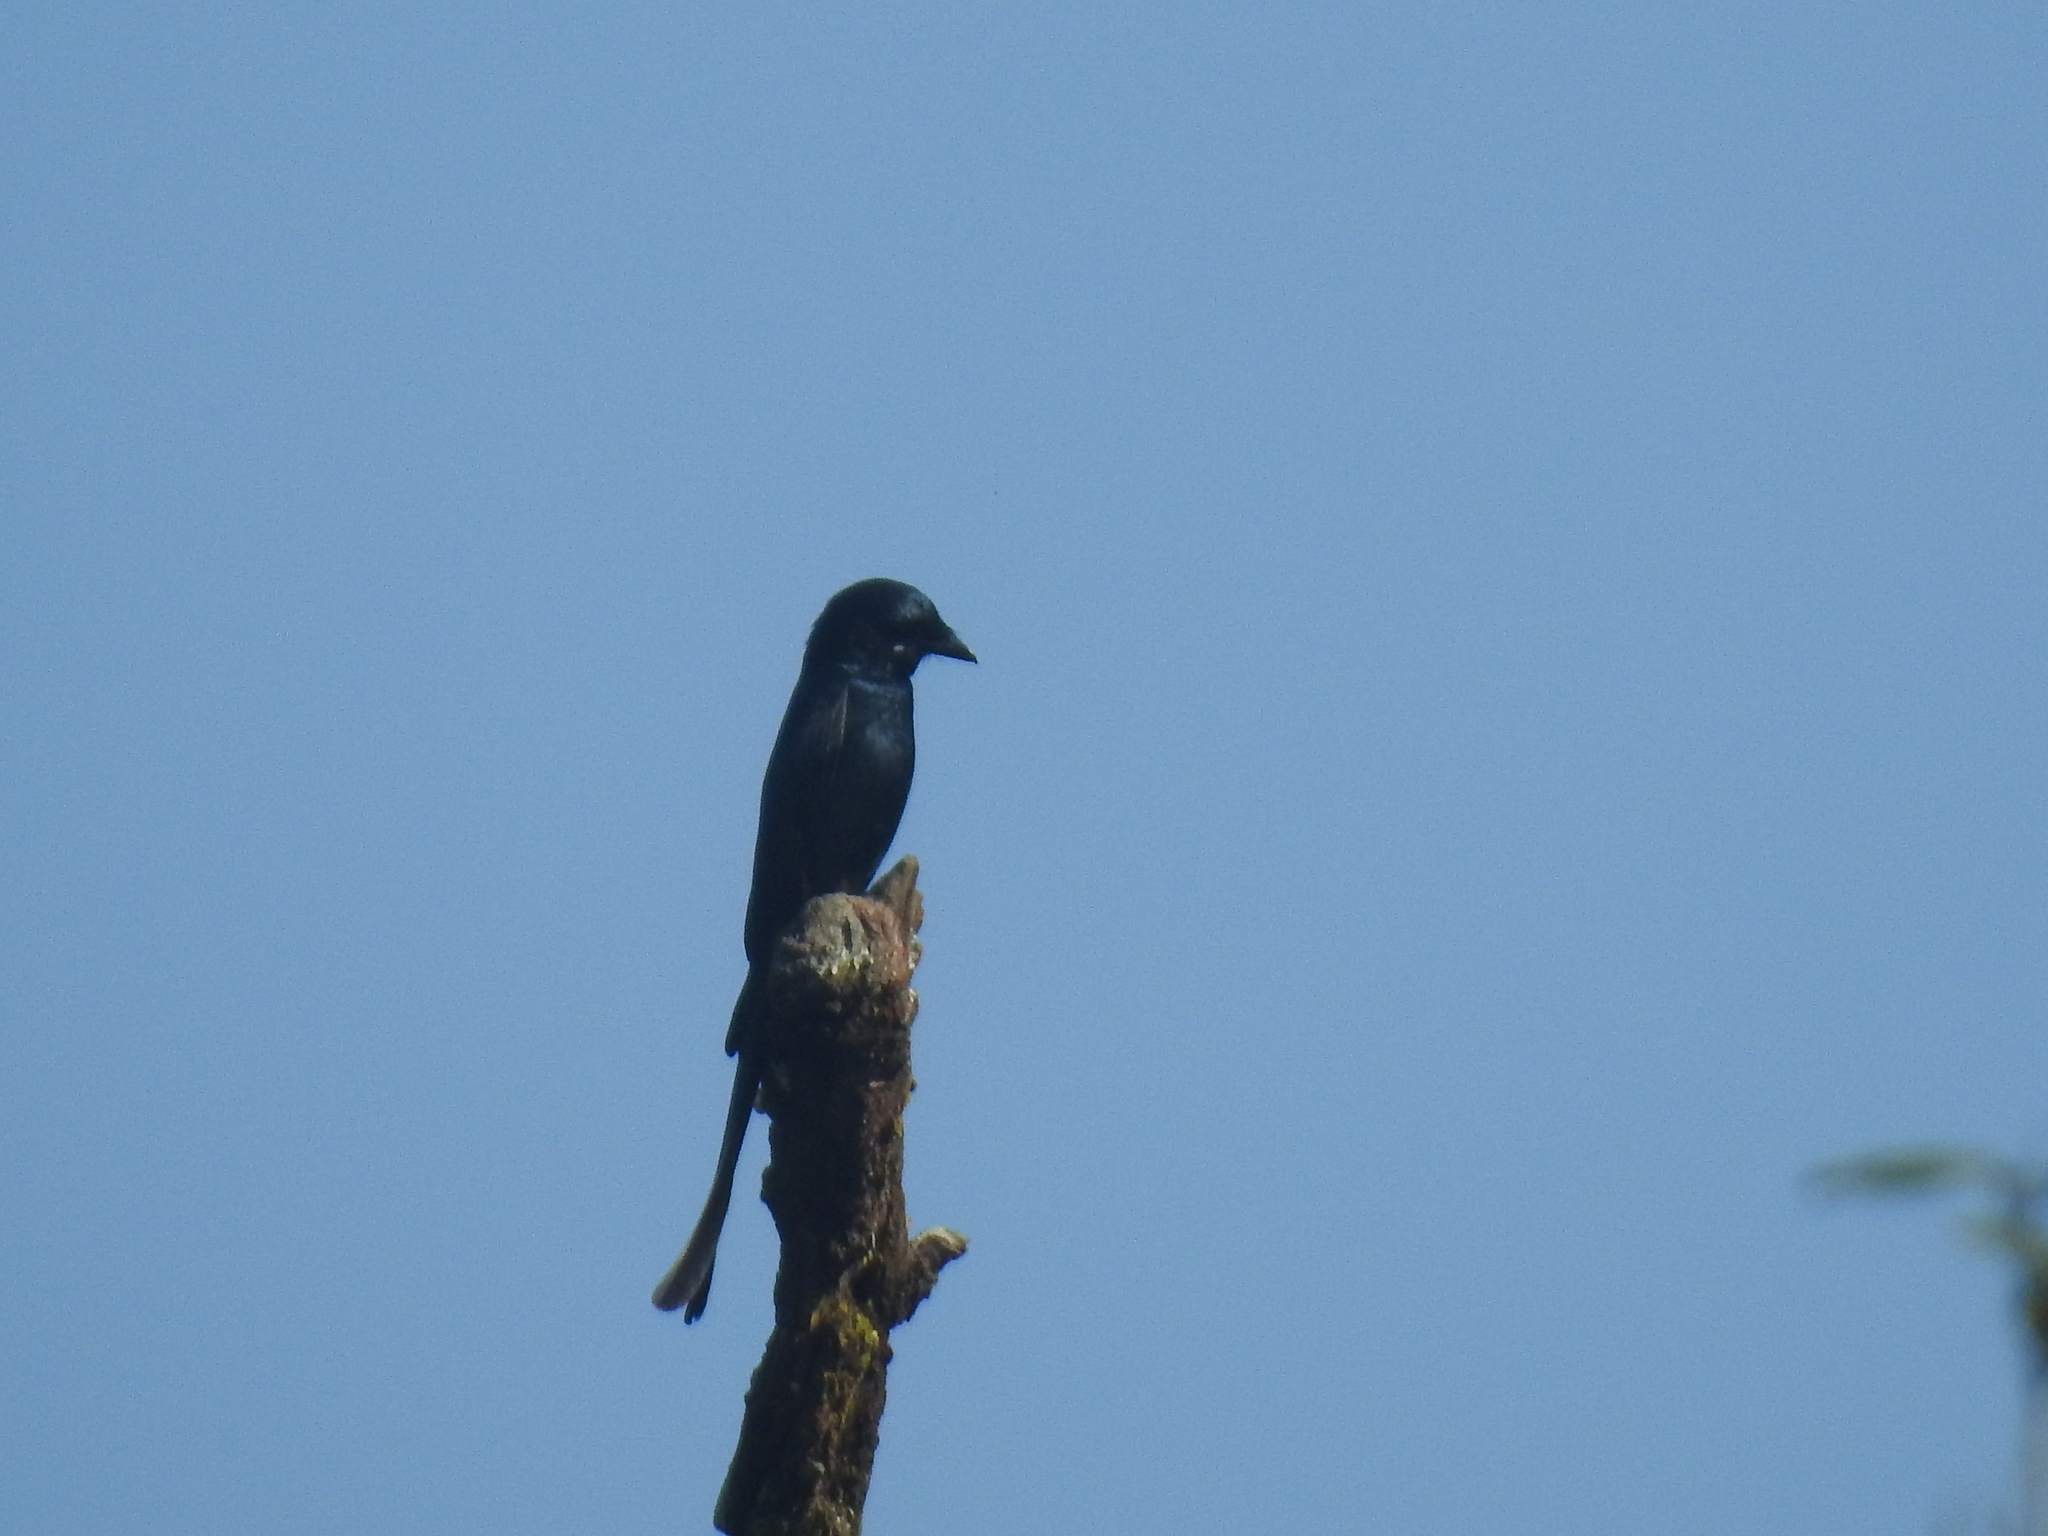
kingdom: Animalia
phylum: Chordata
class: Aves
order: Passeriformes
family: Dicruridae
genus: Dicrurus
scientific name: Dicrurus macrocercus
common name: Black drongo
